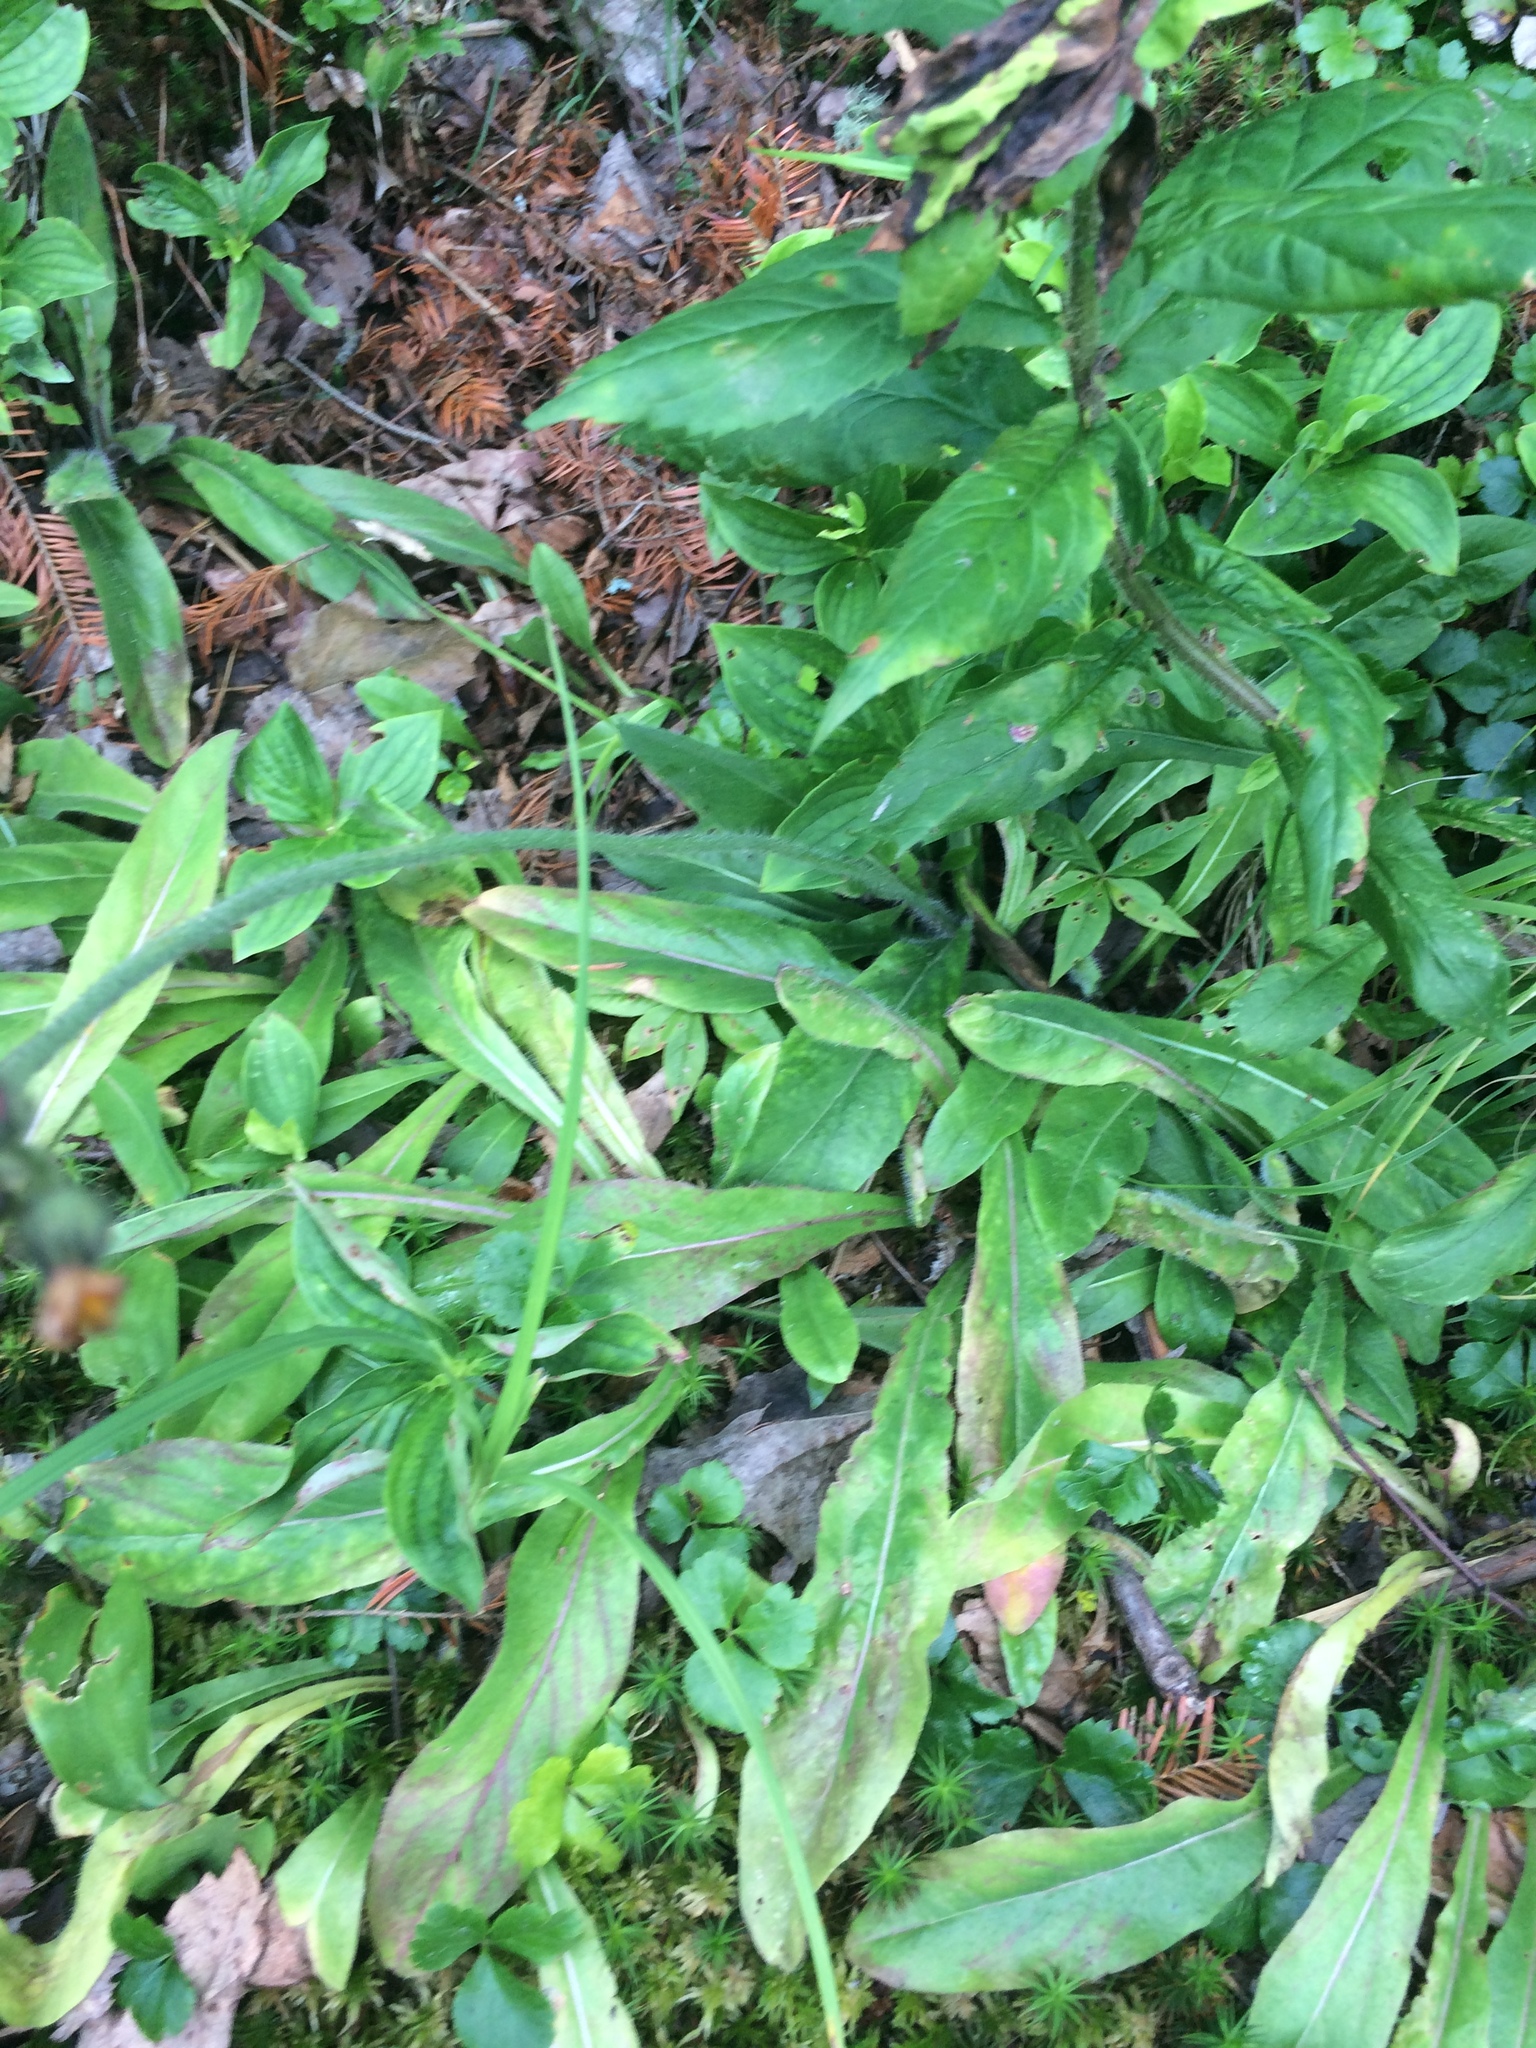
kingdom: Plantae
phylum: Tracheophyta
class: Magnoliopsida
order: Asterales
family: Asteraceae
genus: Pilosella
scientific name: Pilosella aurantiaca
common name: Fox-and-cubs
